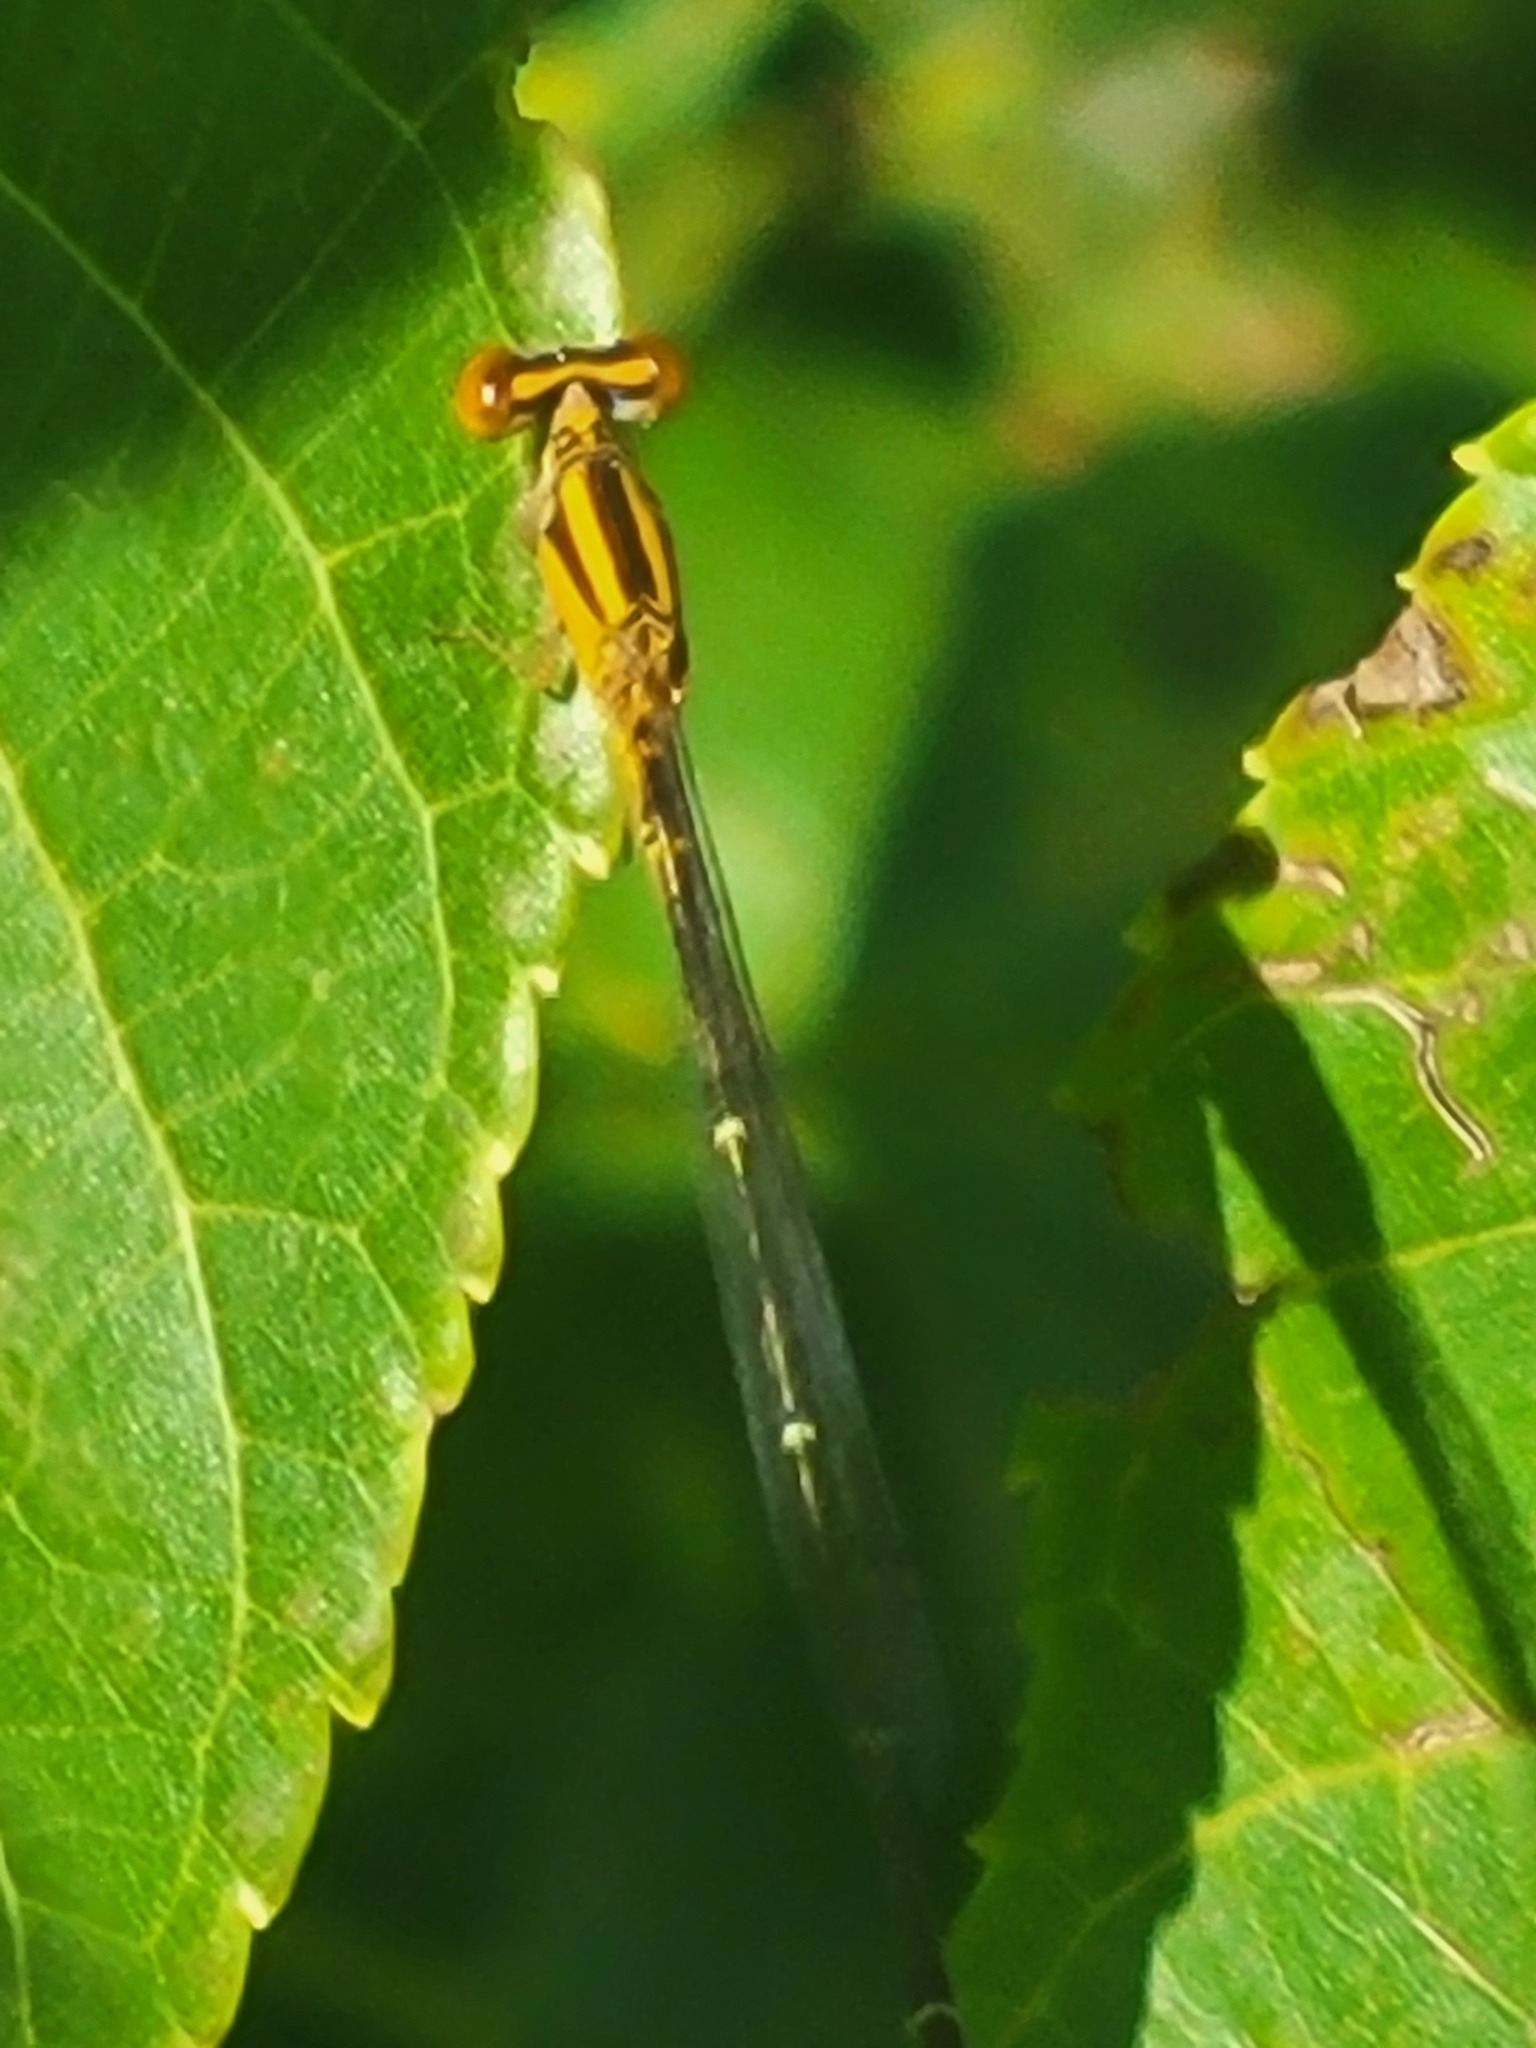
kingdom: Animalia
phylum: Arthropoda
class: Insecta
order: Odonata
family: Coenagrionidae
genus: Enallagma
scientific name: Enallagma signatum
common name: Orange bluet
